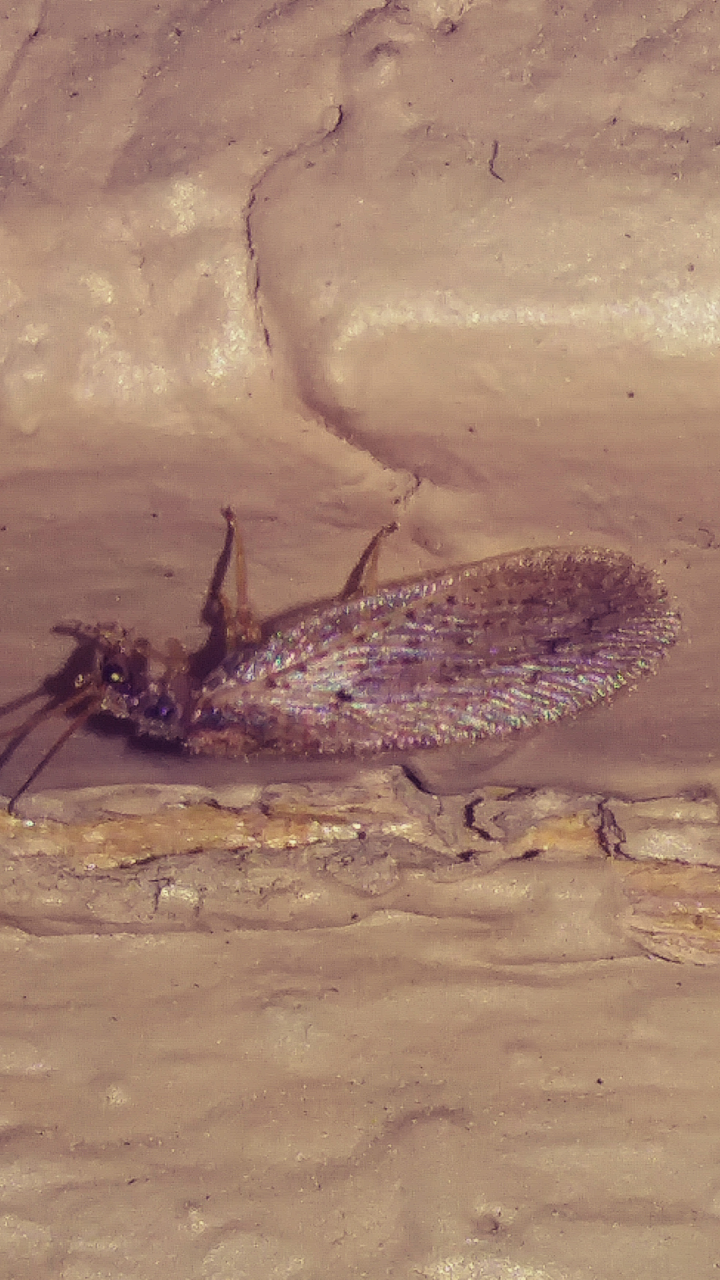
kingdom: Animalia
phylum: Arthropoda
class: Insecta
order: Neuroptera
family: Hemerobiidae
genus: Micromus
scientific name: Micromus subanticus
